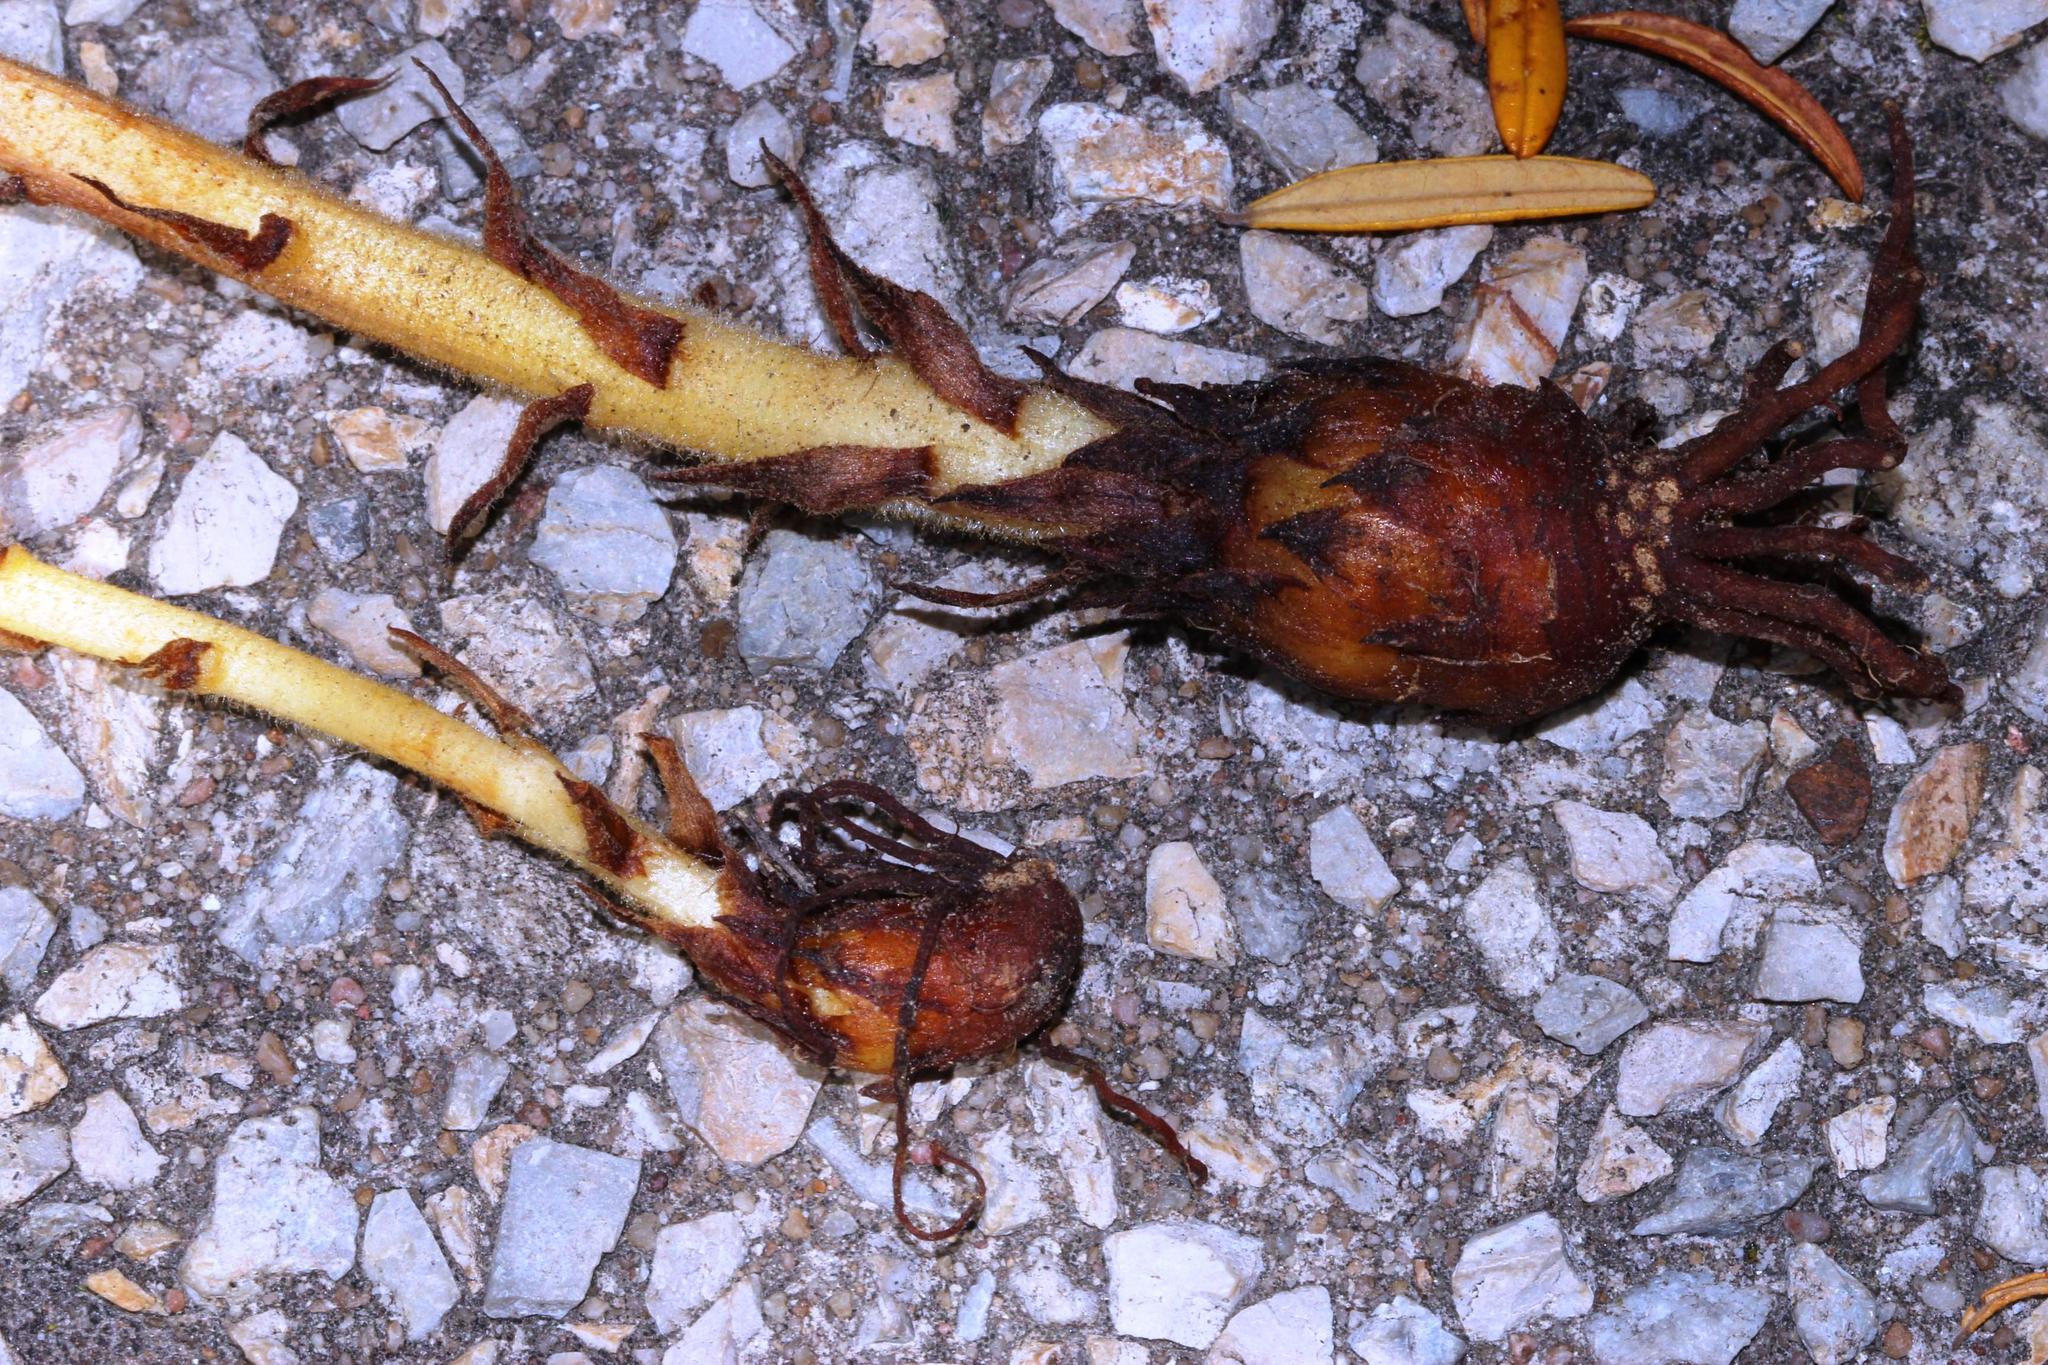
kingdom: Plantae
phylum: Tracheophyta
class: Magnoliopsida
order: Lamiales
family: Orobanchaceae
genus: Orobanche
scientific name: Orobanche minor
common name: Common broomrape
